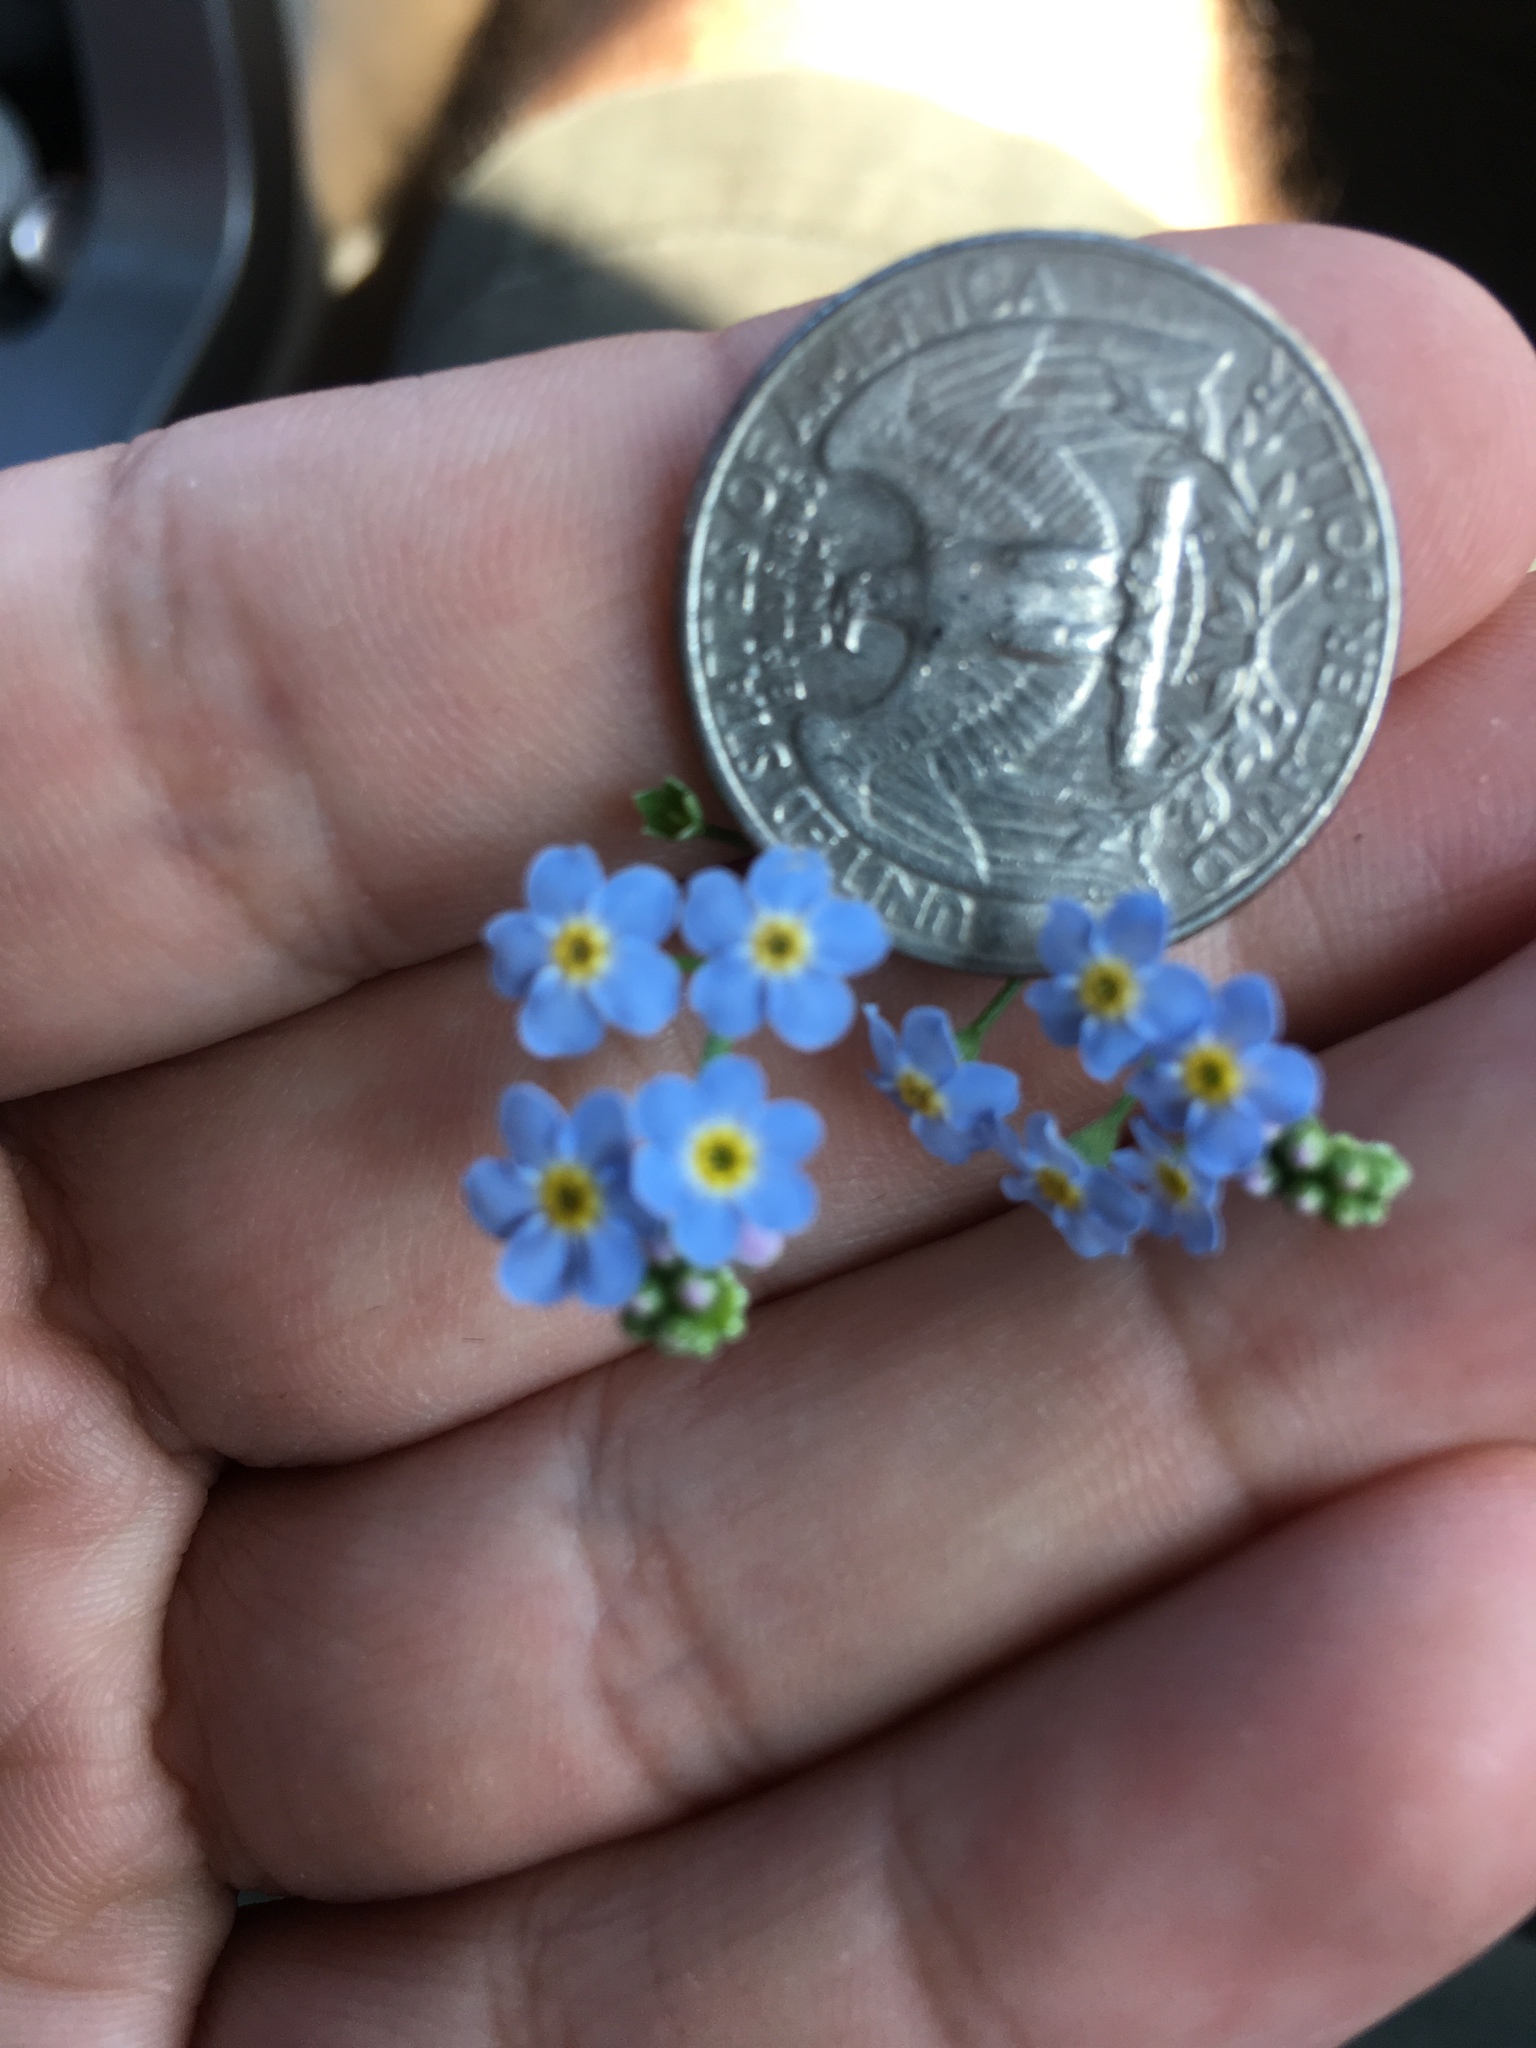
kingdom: Plantae
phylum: Tracheophyta
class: Magnoliopsida
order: Boraginales
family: Boraginaceae
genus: Myosotis
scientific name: Myosotis scorpioides
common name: Water forget-me-not
